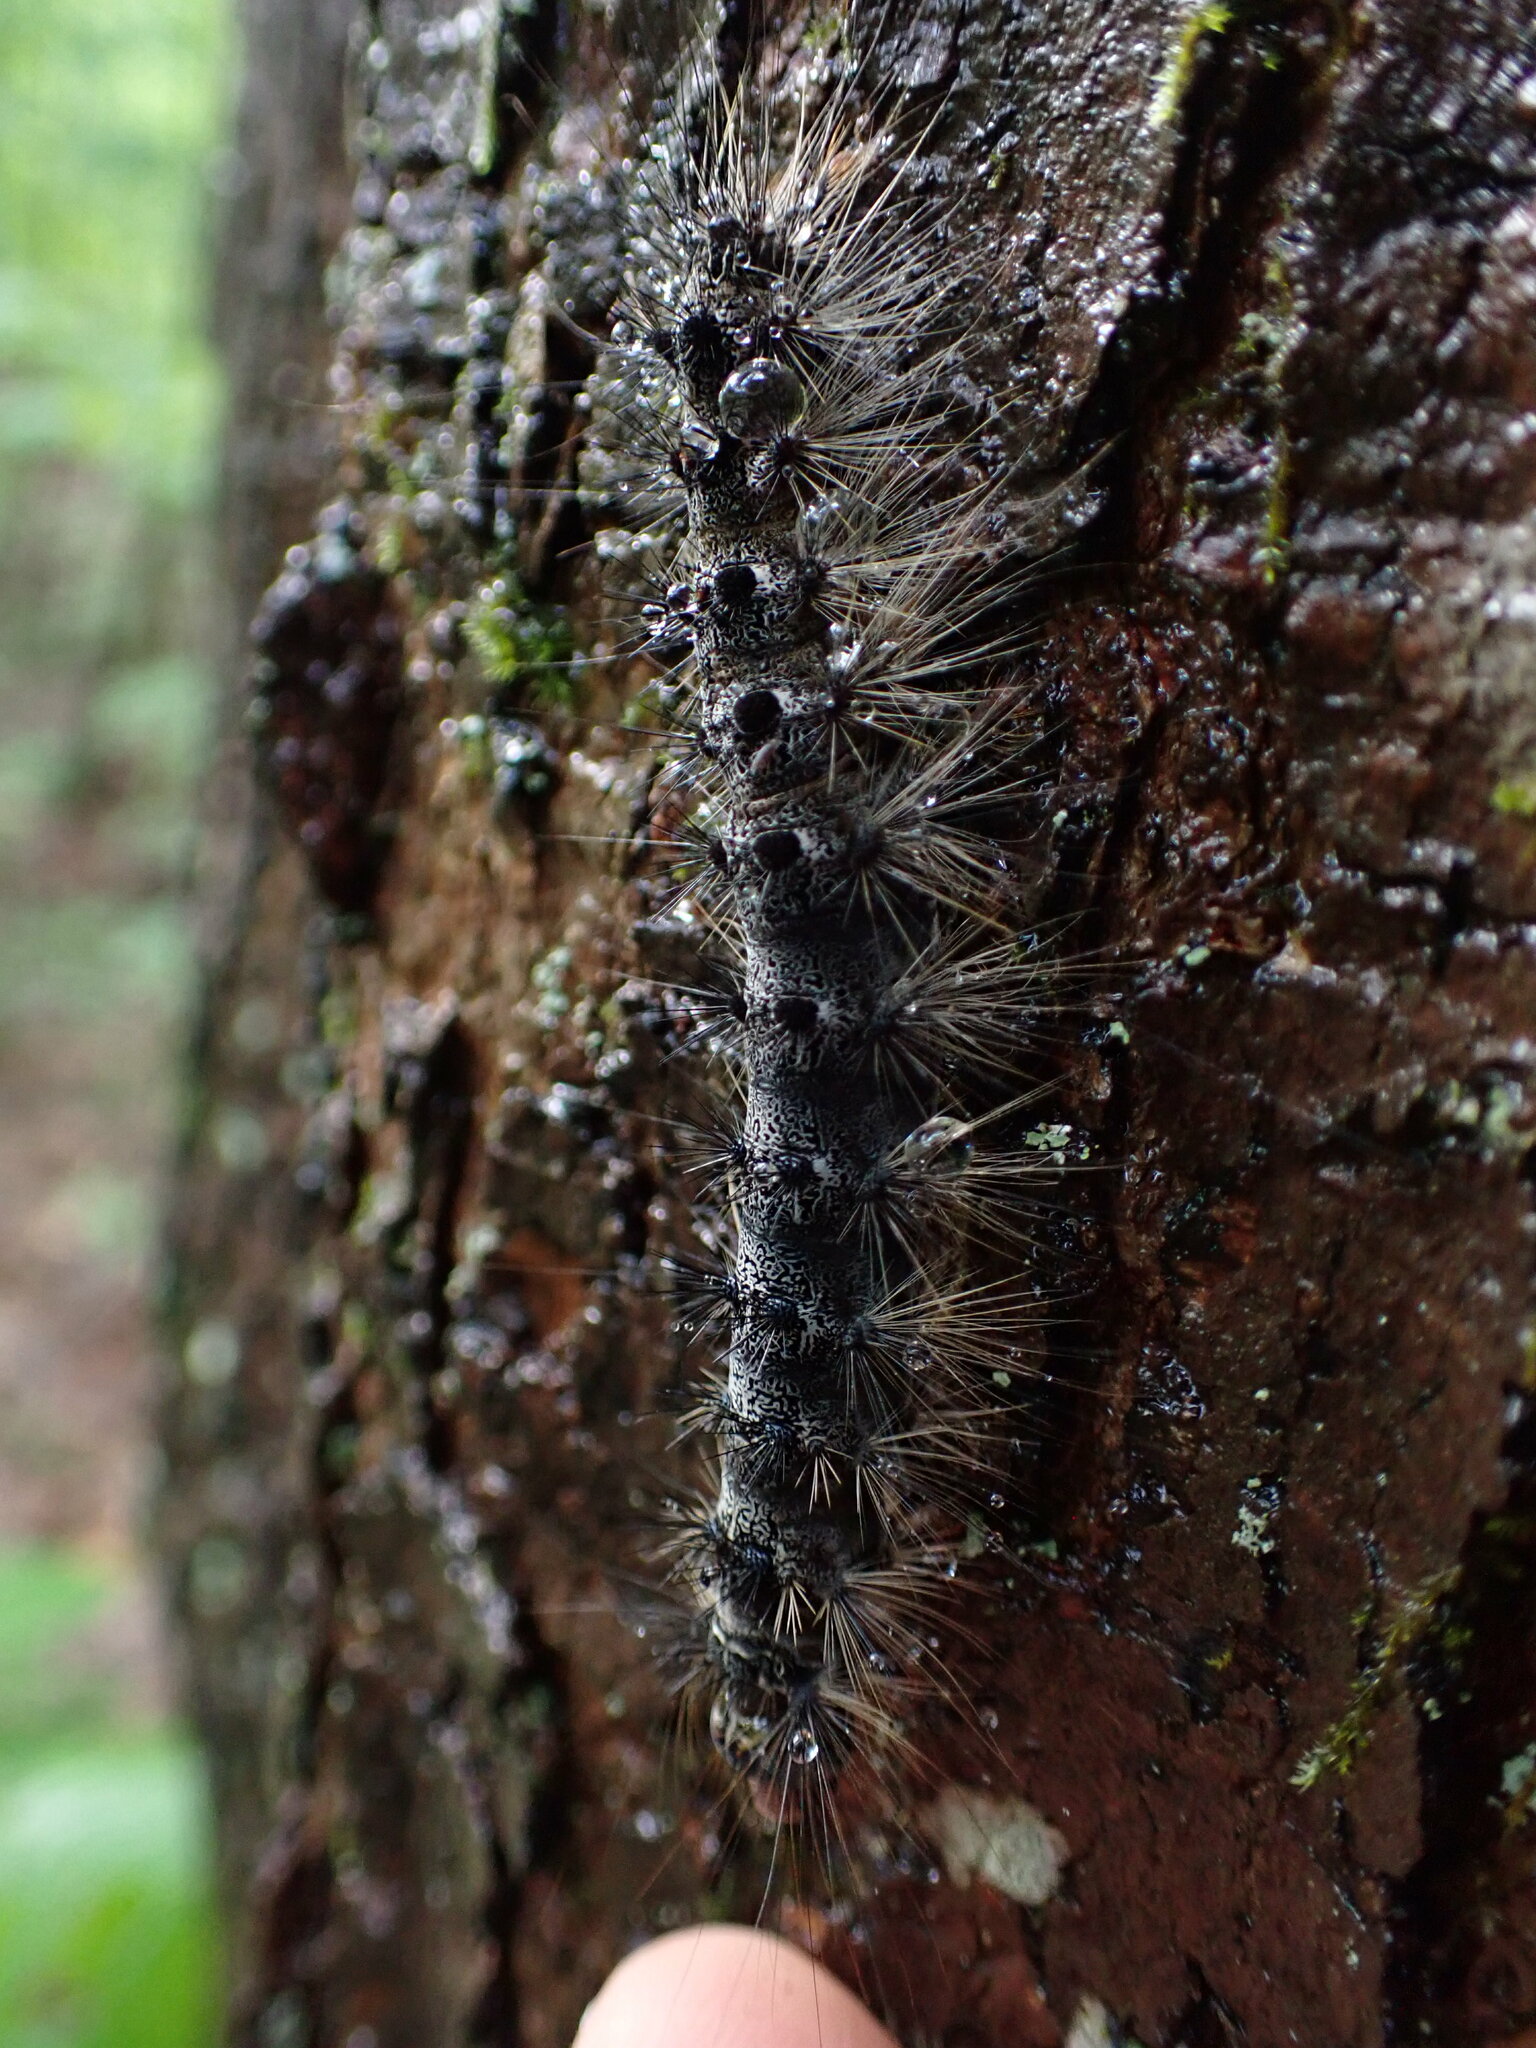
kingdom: Animalia
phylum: Arthropoda
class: Insecta
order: Lepidoptera
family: Erebidae
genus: Lymantria
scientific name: Lymantria dispar
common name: Gypsy moth
